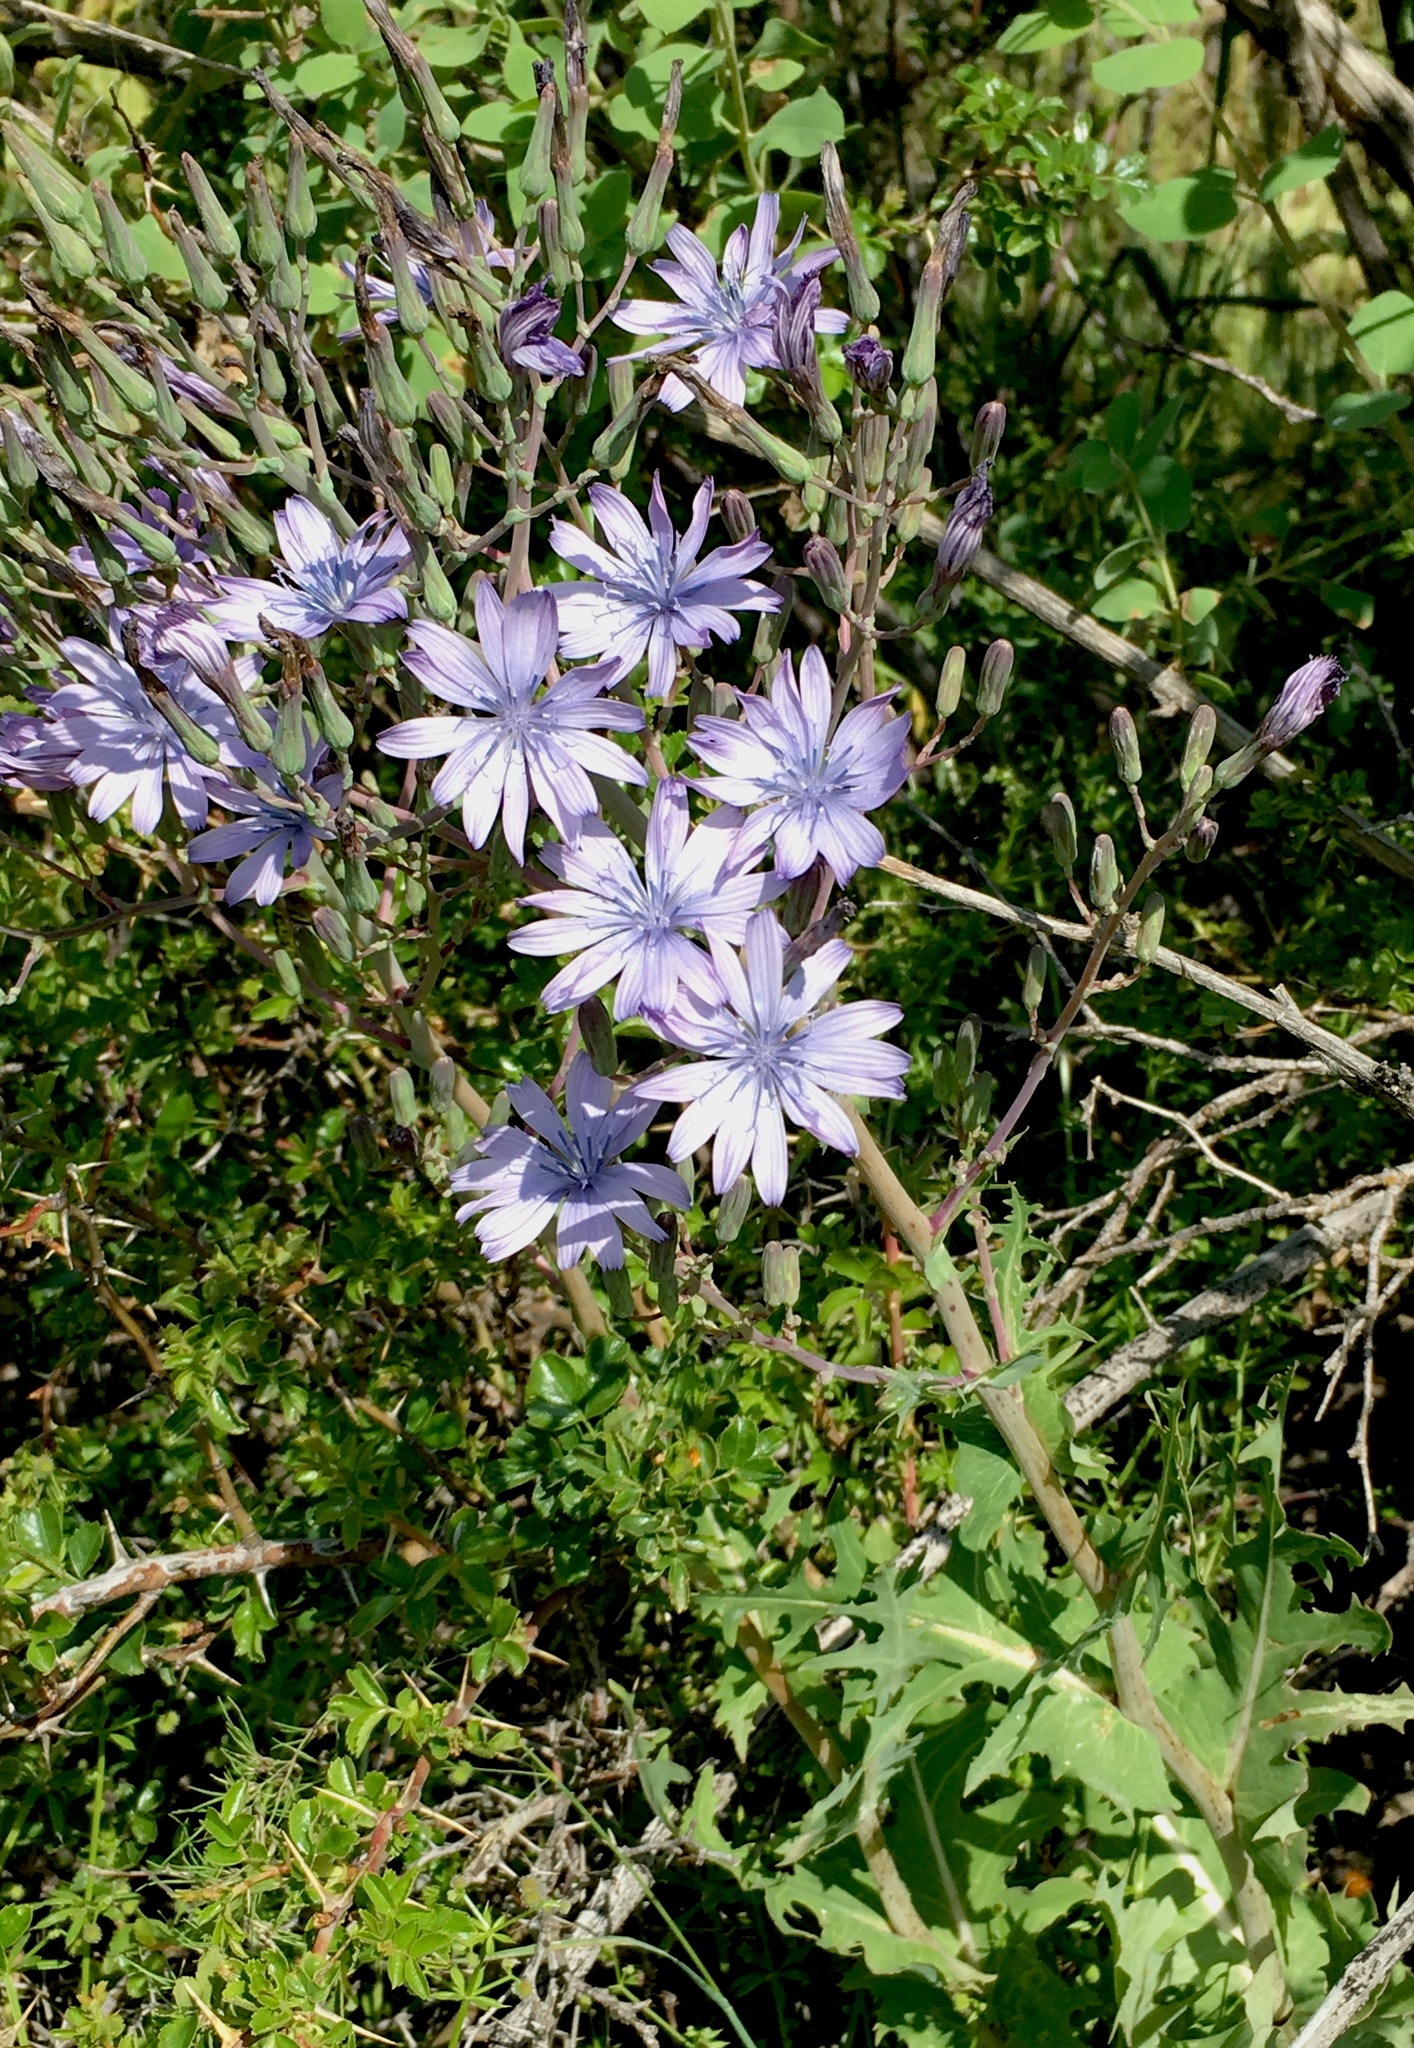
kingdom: Plantae
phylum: Tracheophyta
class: Magnoliopsida
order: Asterales
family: Asteraceae
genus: Lactuca
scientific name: Lactuca soongarica
